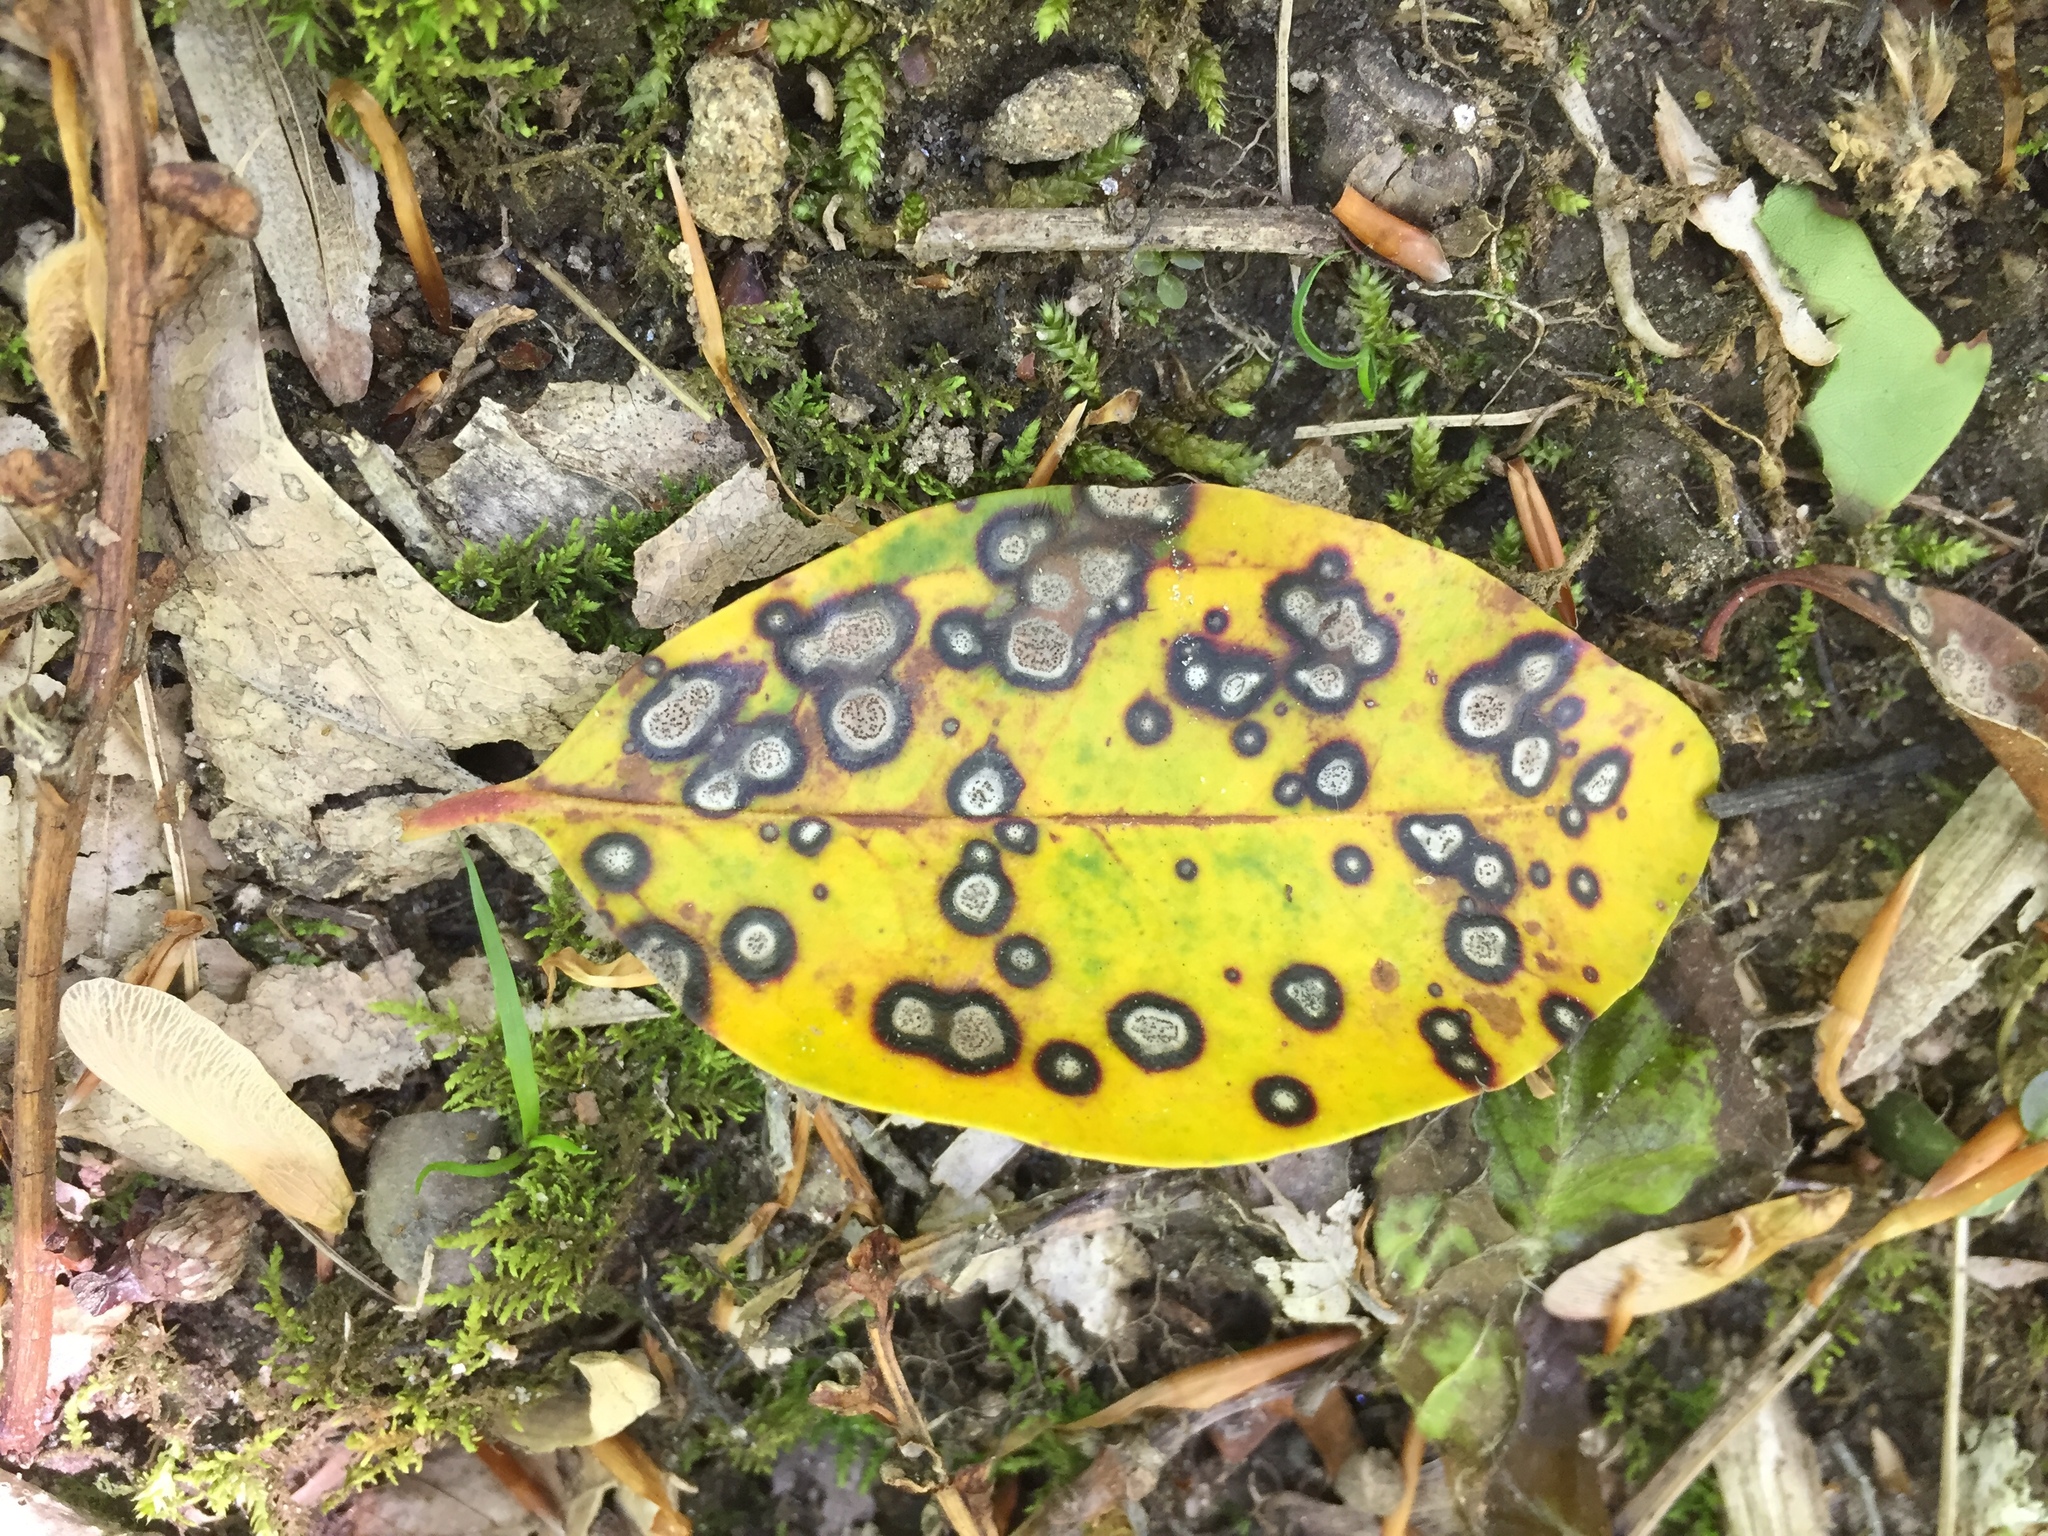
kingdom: Fungi
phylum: Ascomycota
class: Dothideomycetes
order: Mycosphaerellales
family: Mycosphaerellaceae
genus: Mycosphaerella
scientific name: Mycosphaerella colorata
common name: Mountain laurel leaf spot
